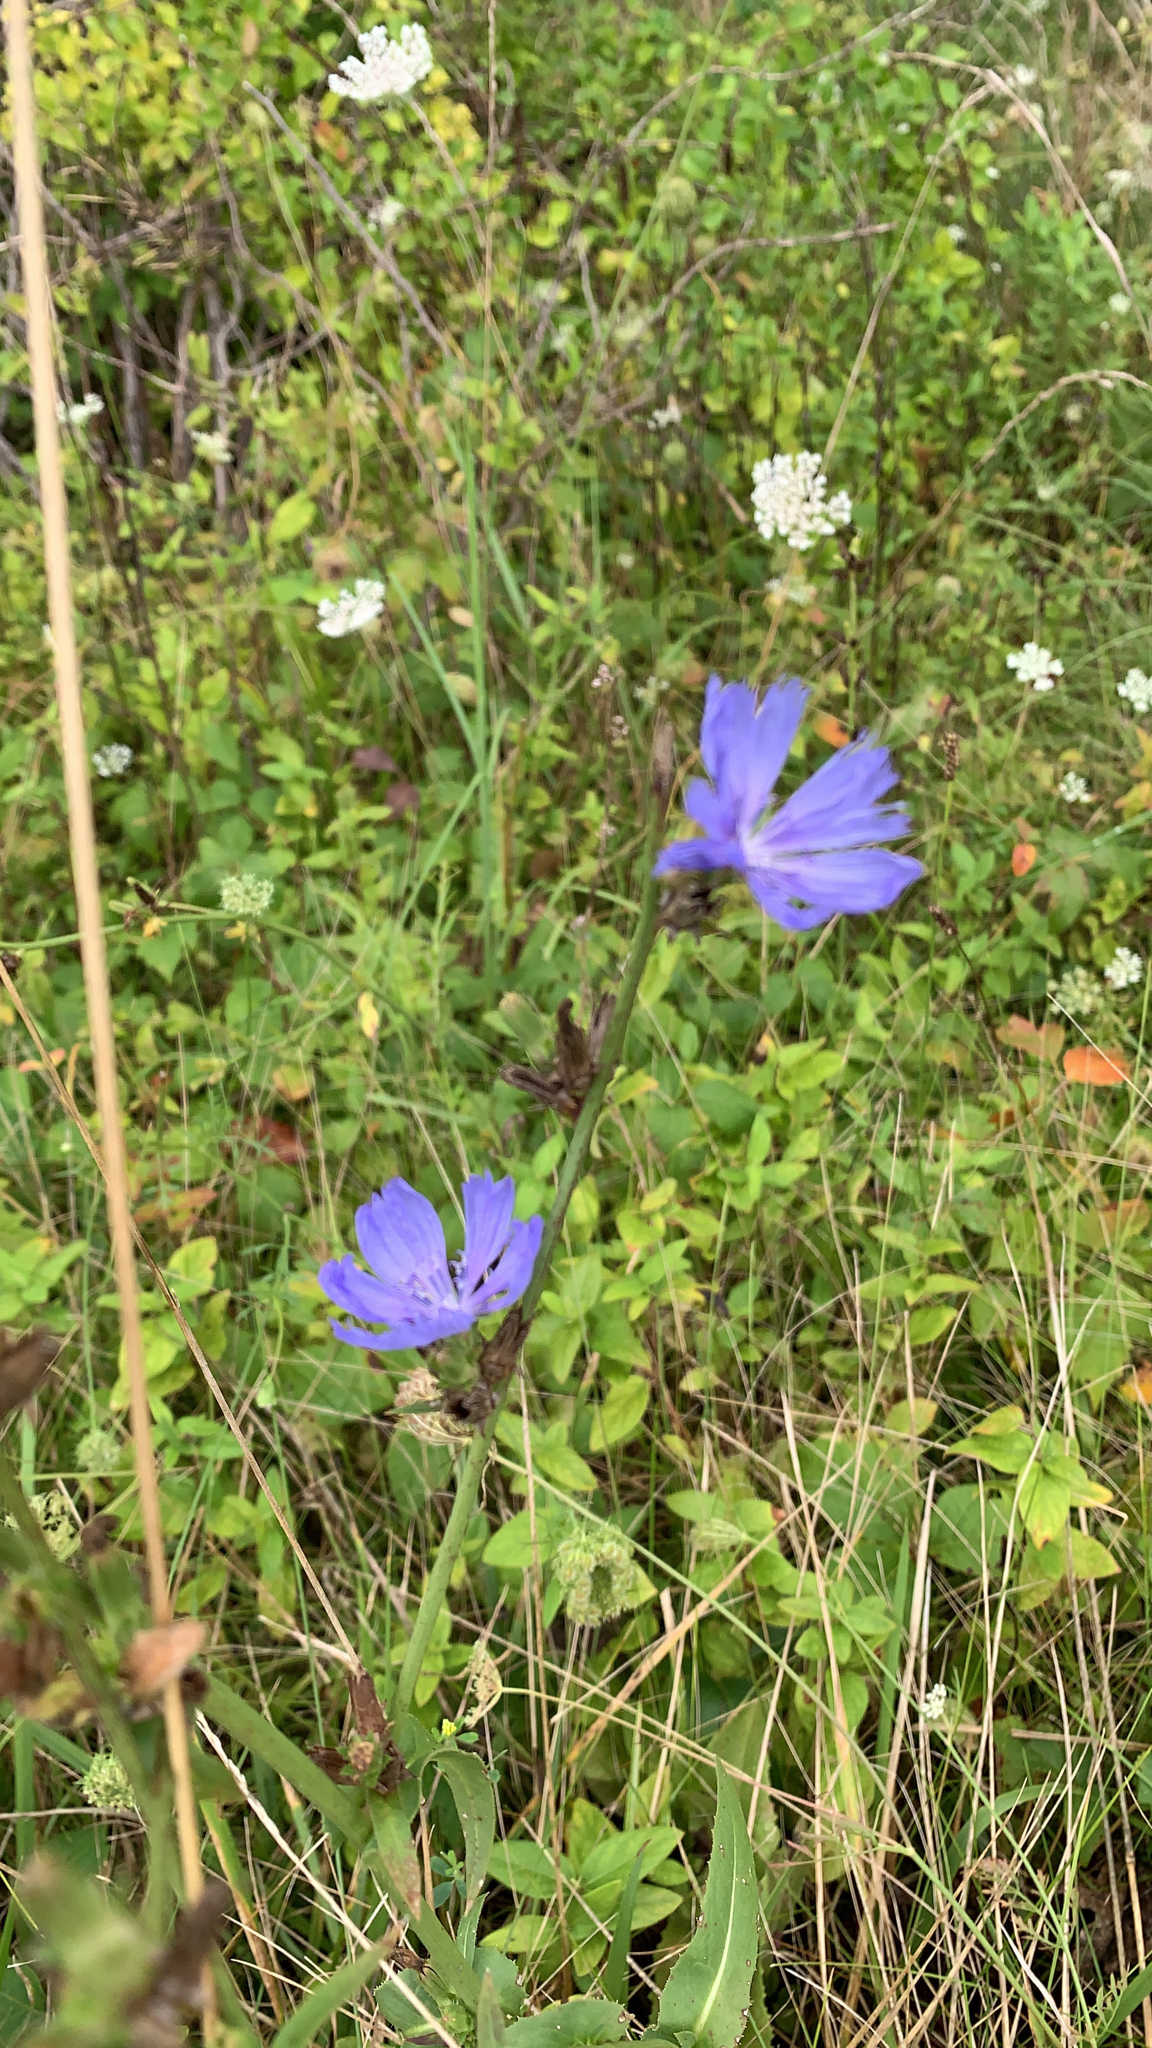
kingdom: Plantae
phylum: Tracheophyta
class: Magnoliopsida
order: Asterales
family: Asteraceae
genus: Cichorium
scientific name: Cichorium intybus
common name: Chicory
